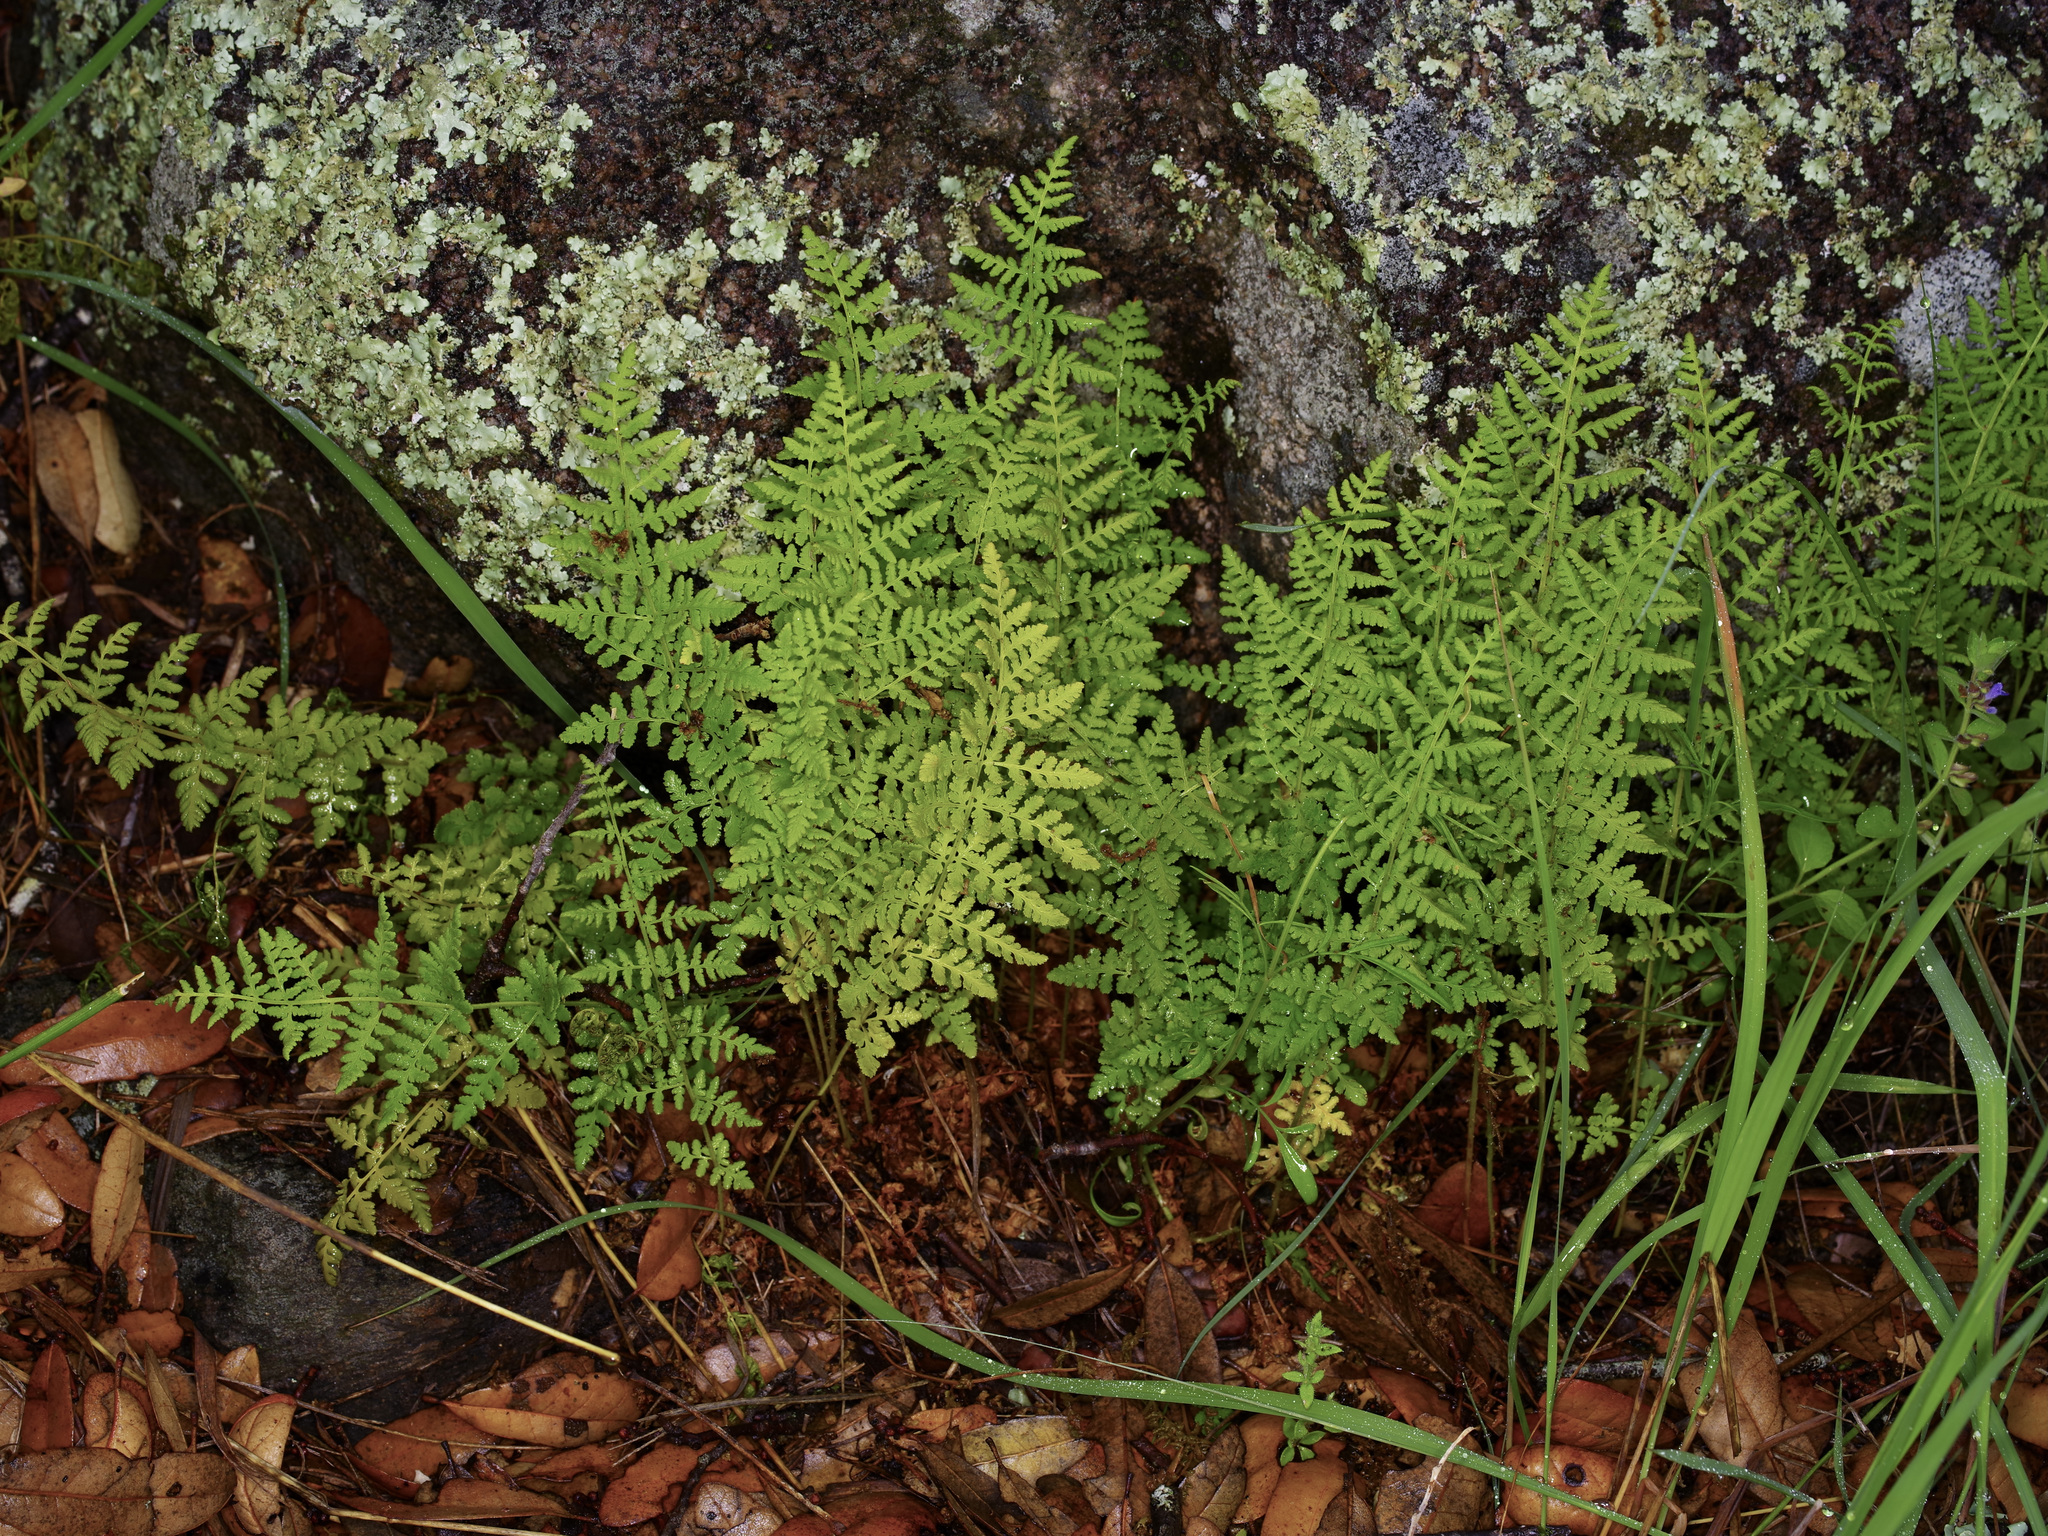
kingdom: Plantae
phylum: Tracheophyta
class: Polypodiopsida
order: Polypodiales
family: Woodsiaceae
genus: Physematium
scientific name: Physematium obtusum
